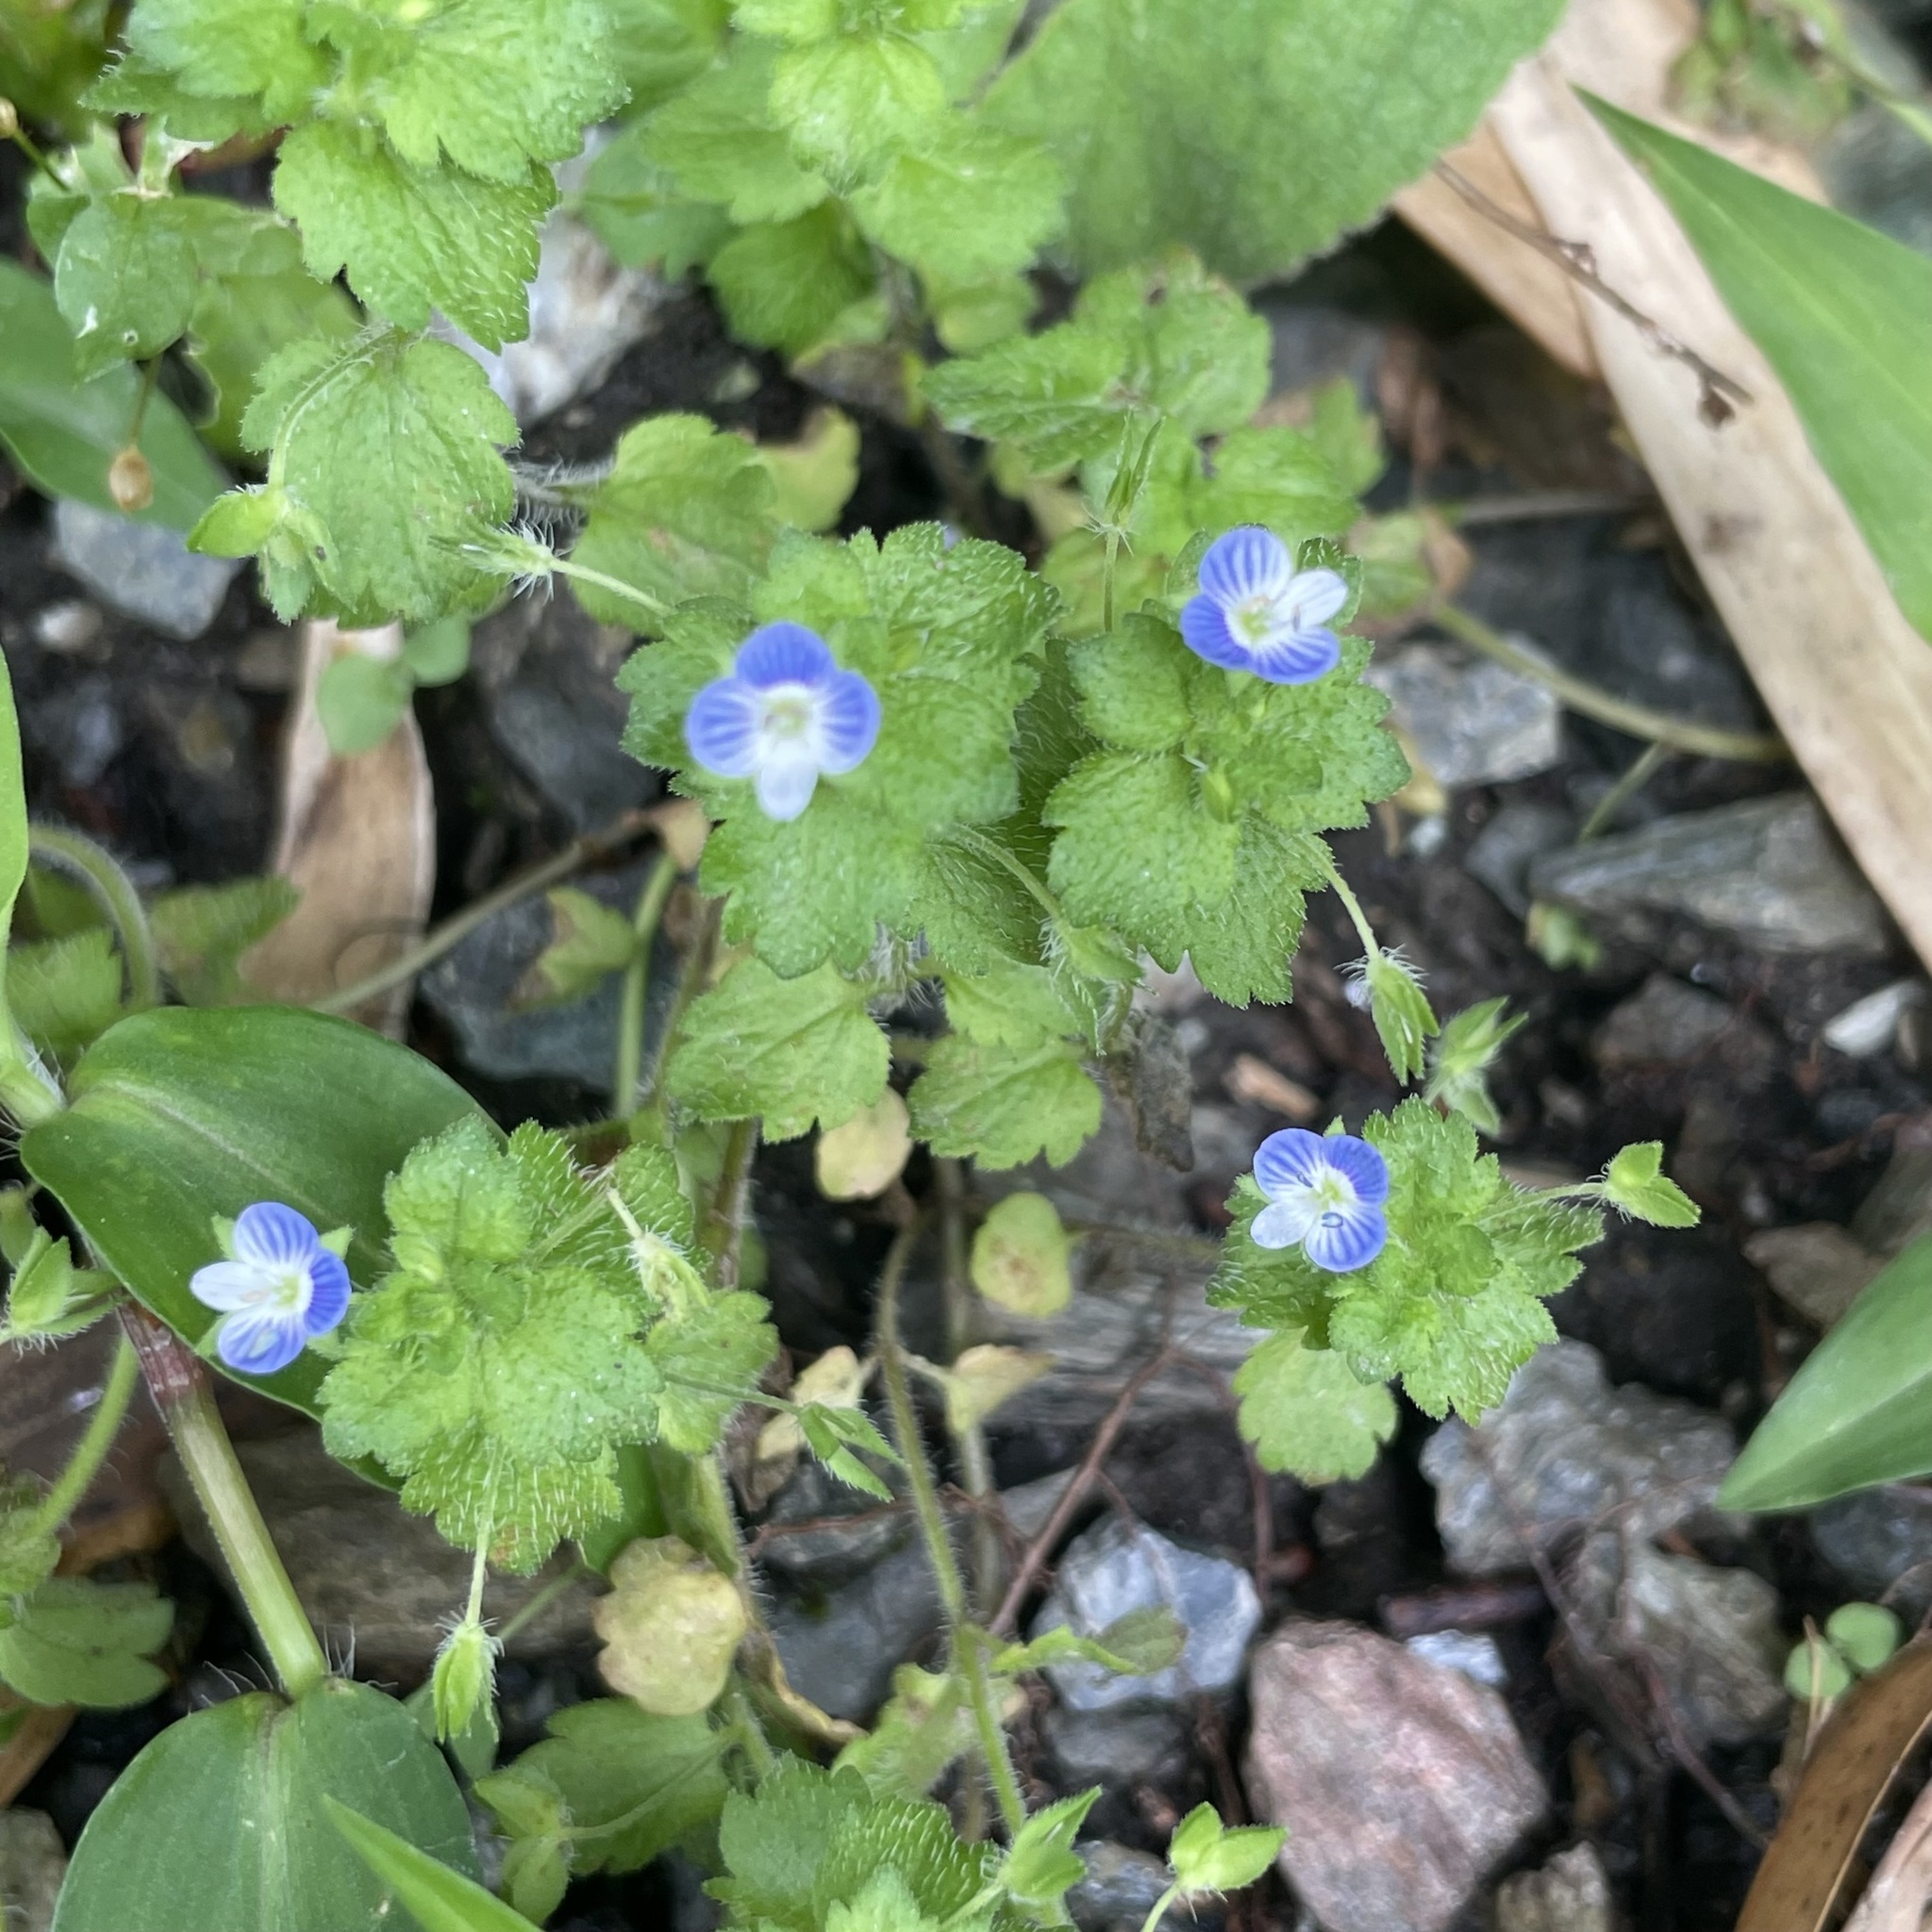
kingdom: Plantae
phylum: Tracheophyta
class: Magnoliopsida
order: Lamiales
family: Plantaginaceae
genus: Veronica
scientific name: Veronica persica
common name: Common field-speedwell
